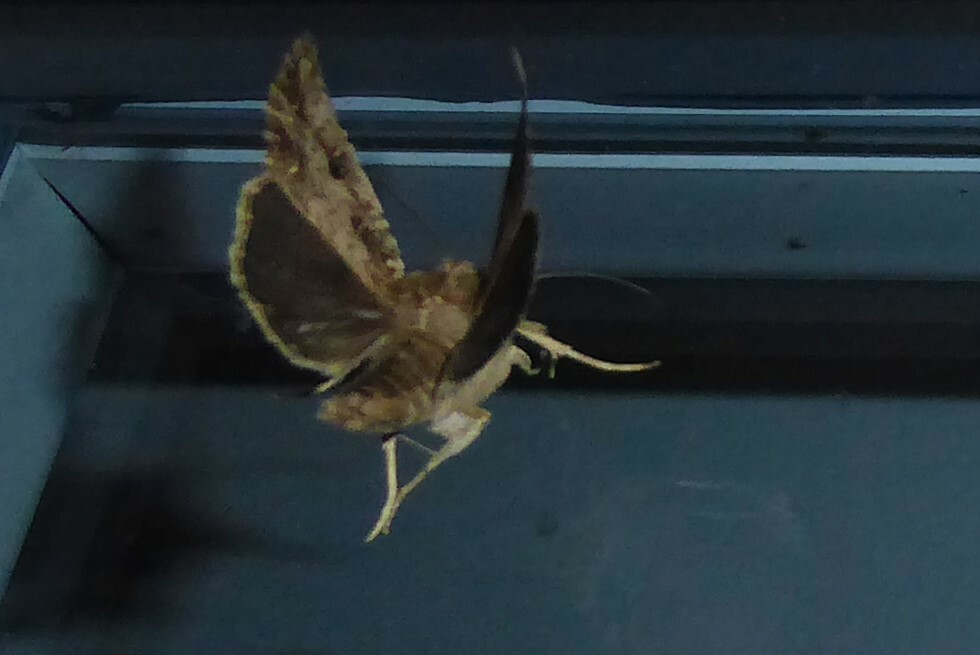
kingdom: Animalia
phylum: Arthropoda
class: Insecta
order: Lepidoptera
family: Noctuidae
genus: Ichneutica
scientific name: Ichneutica lignana
